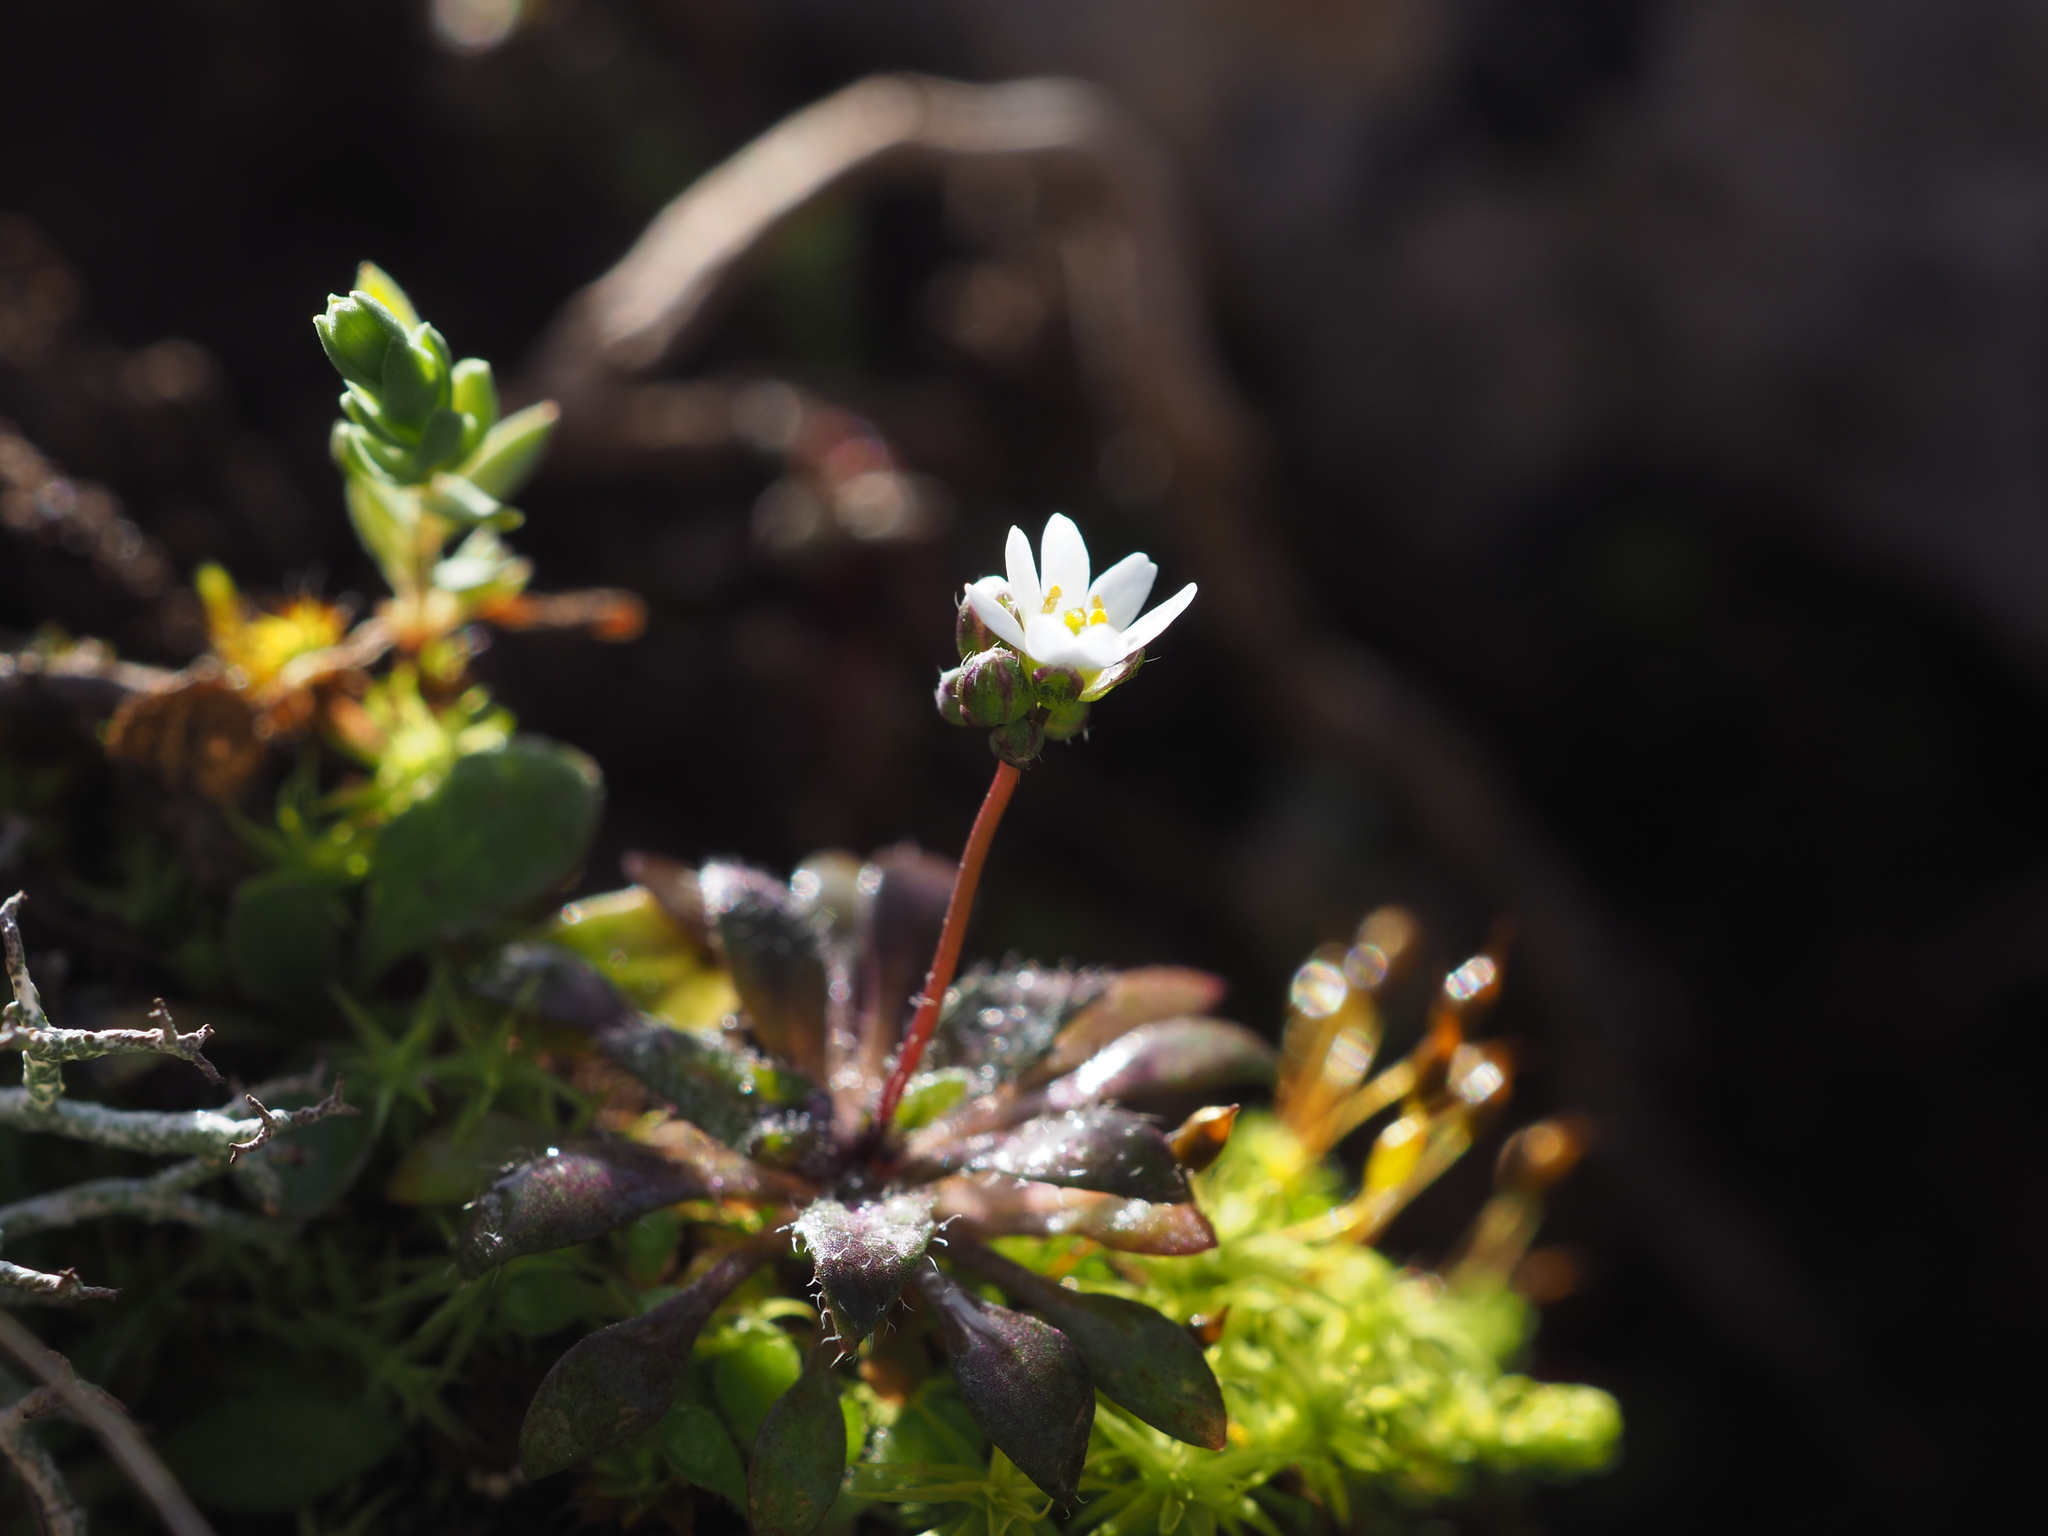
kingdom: Plantae
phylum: Tracheophyta
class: Magnoliopsida
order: Brassicales
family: Brassicaceae
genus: Draba
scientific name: Draba verna
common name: Spring draba
